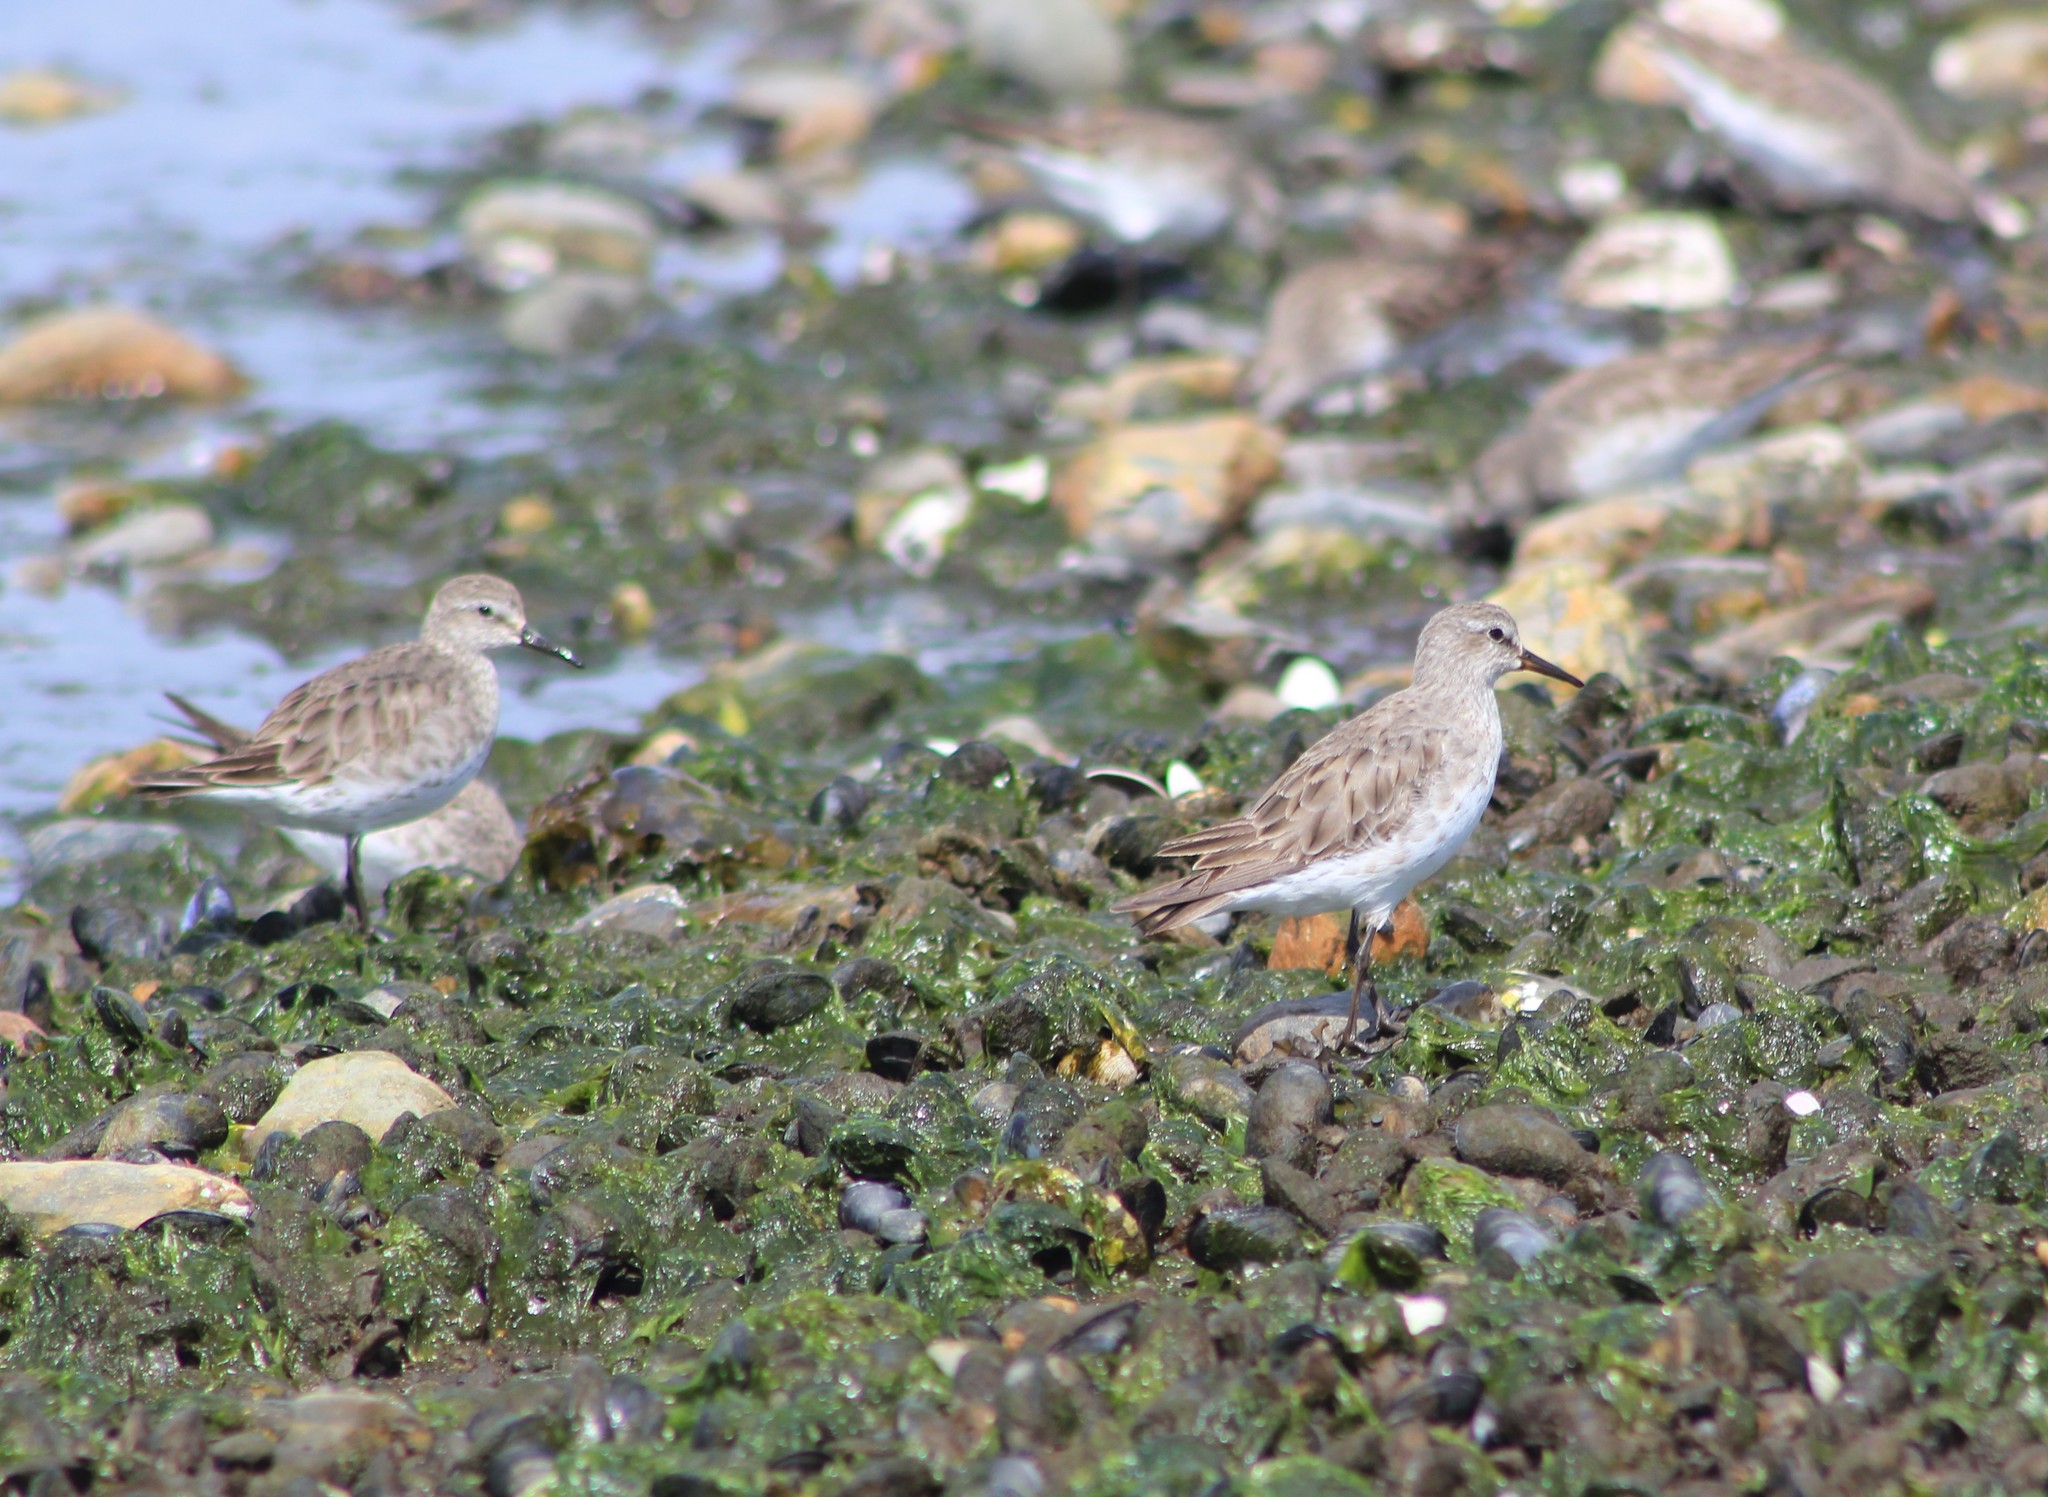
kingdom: Animalia
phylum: Chordata
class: Aves
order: Charadriiformes
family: Scolopacidae
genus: Calidris
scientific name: Calidris fuscicollis
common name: White-rumped sandpiper
